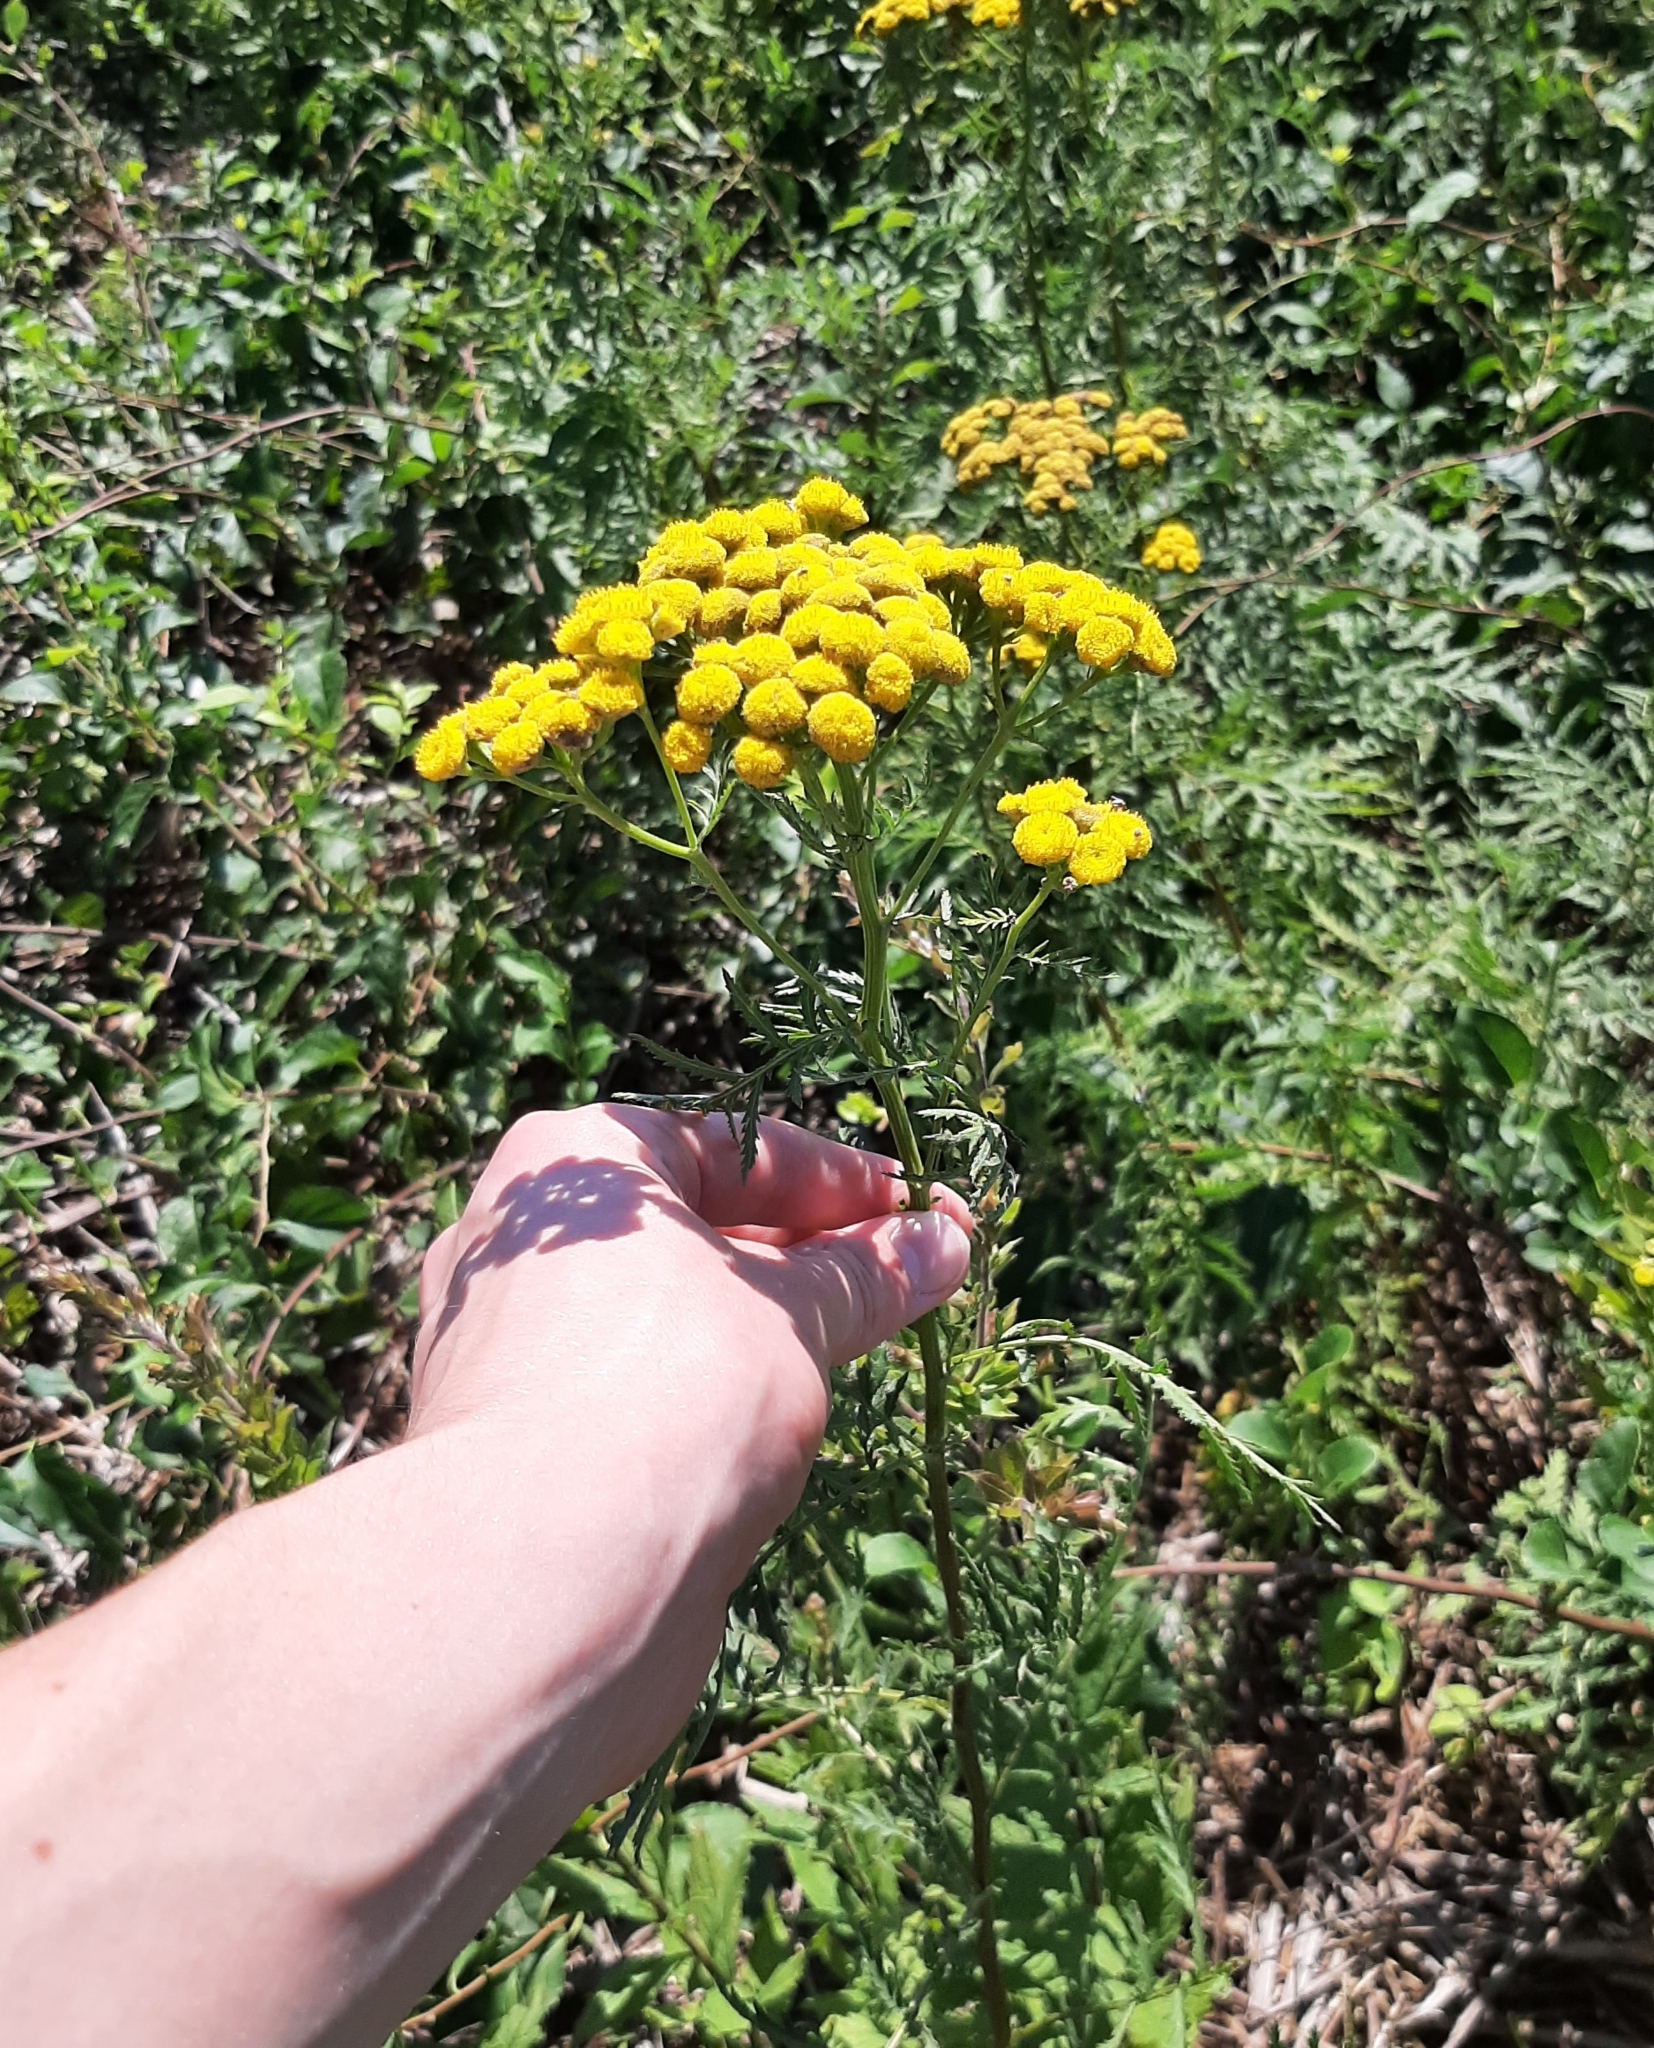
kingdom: Plantae
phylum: Tracheophyta
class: Magnoliopsida
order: Asterales
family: Asteraceae
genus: Tanacetum
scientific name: Tanacetum vulgare
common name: Common tansy
